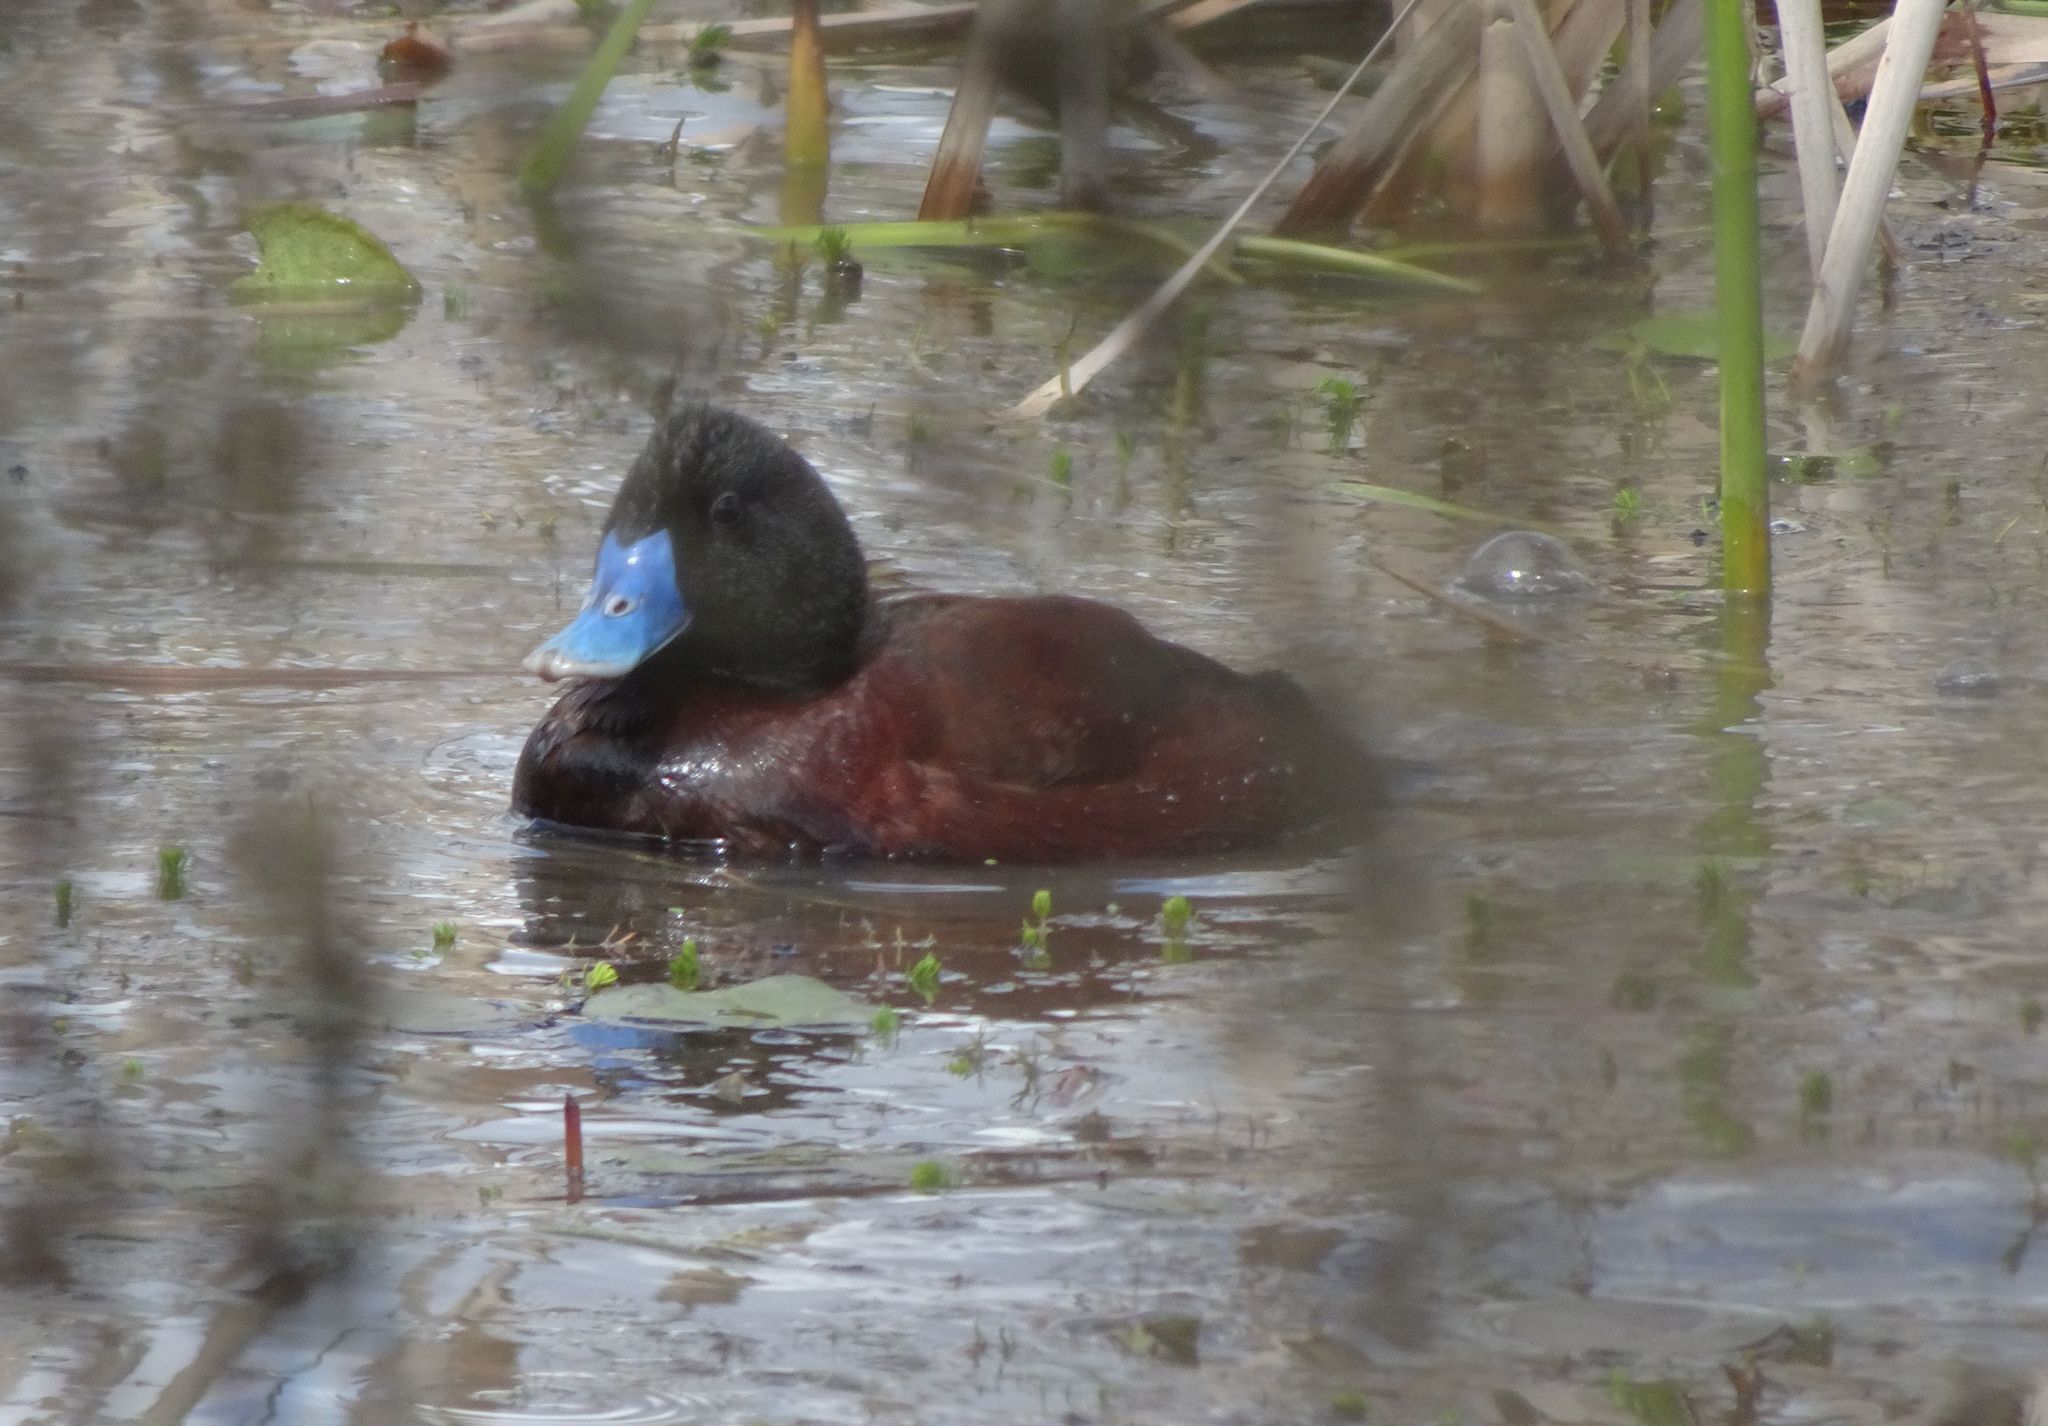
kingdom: Animalia
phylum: Chordata
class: Aves
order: Anseriformes
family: Anatidae
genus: Oxyura
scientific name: Oxyura australis
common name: Blue-billed duck
